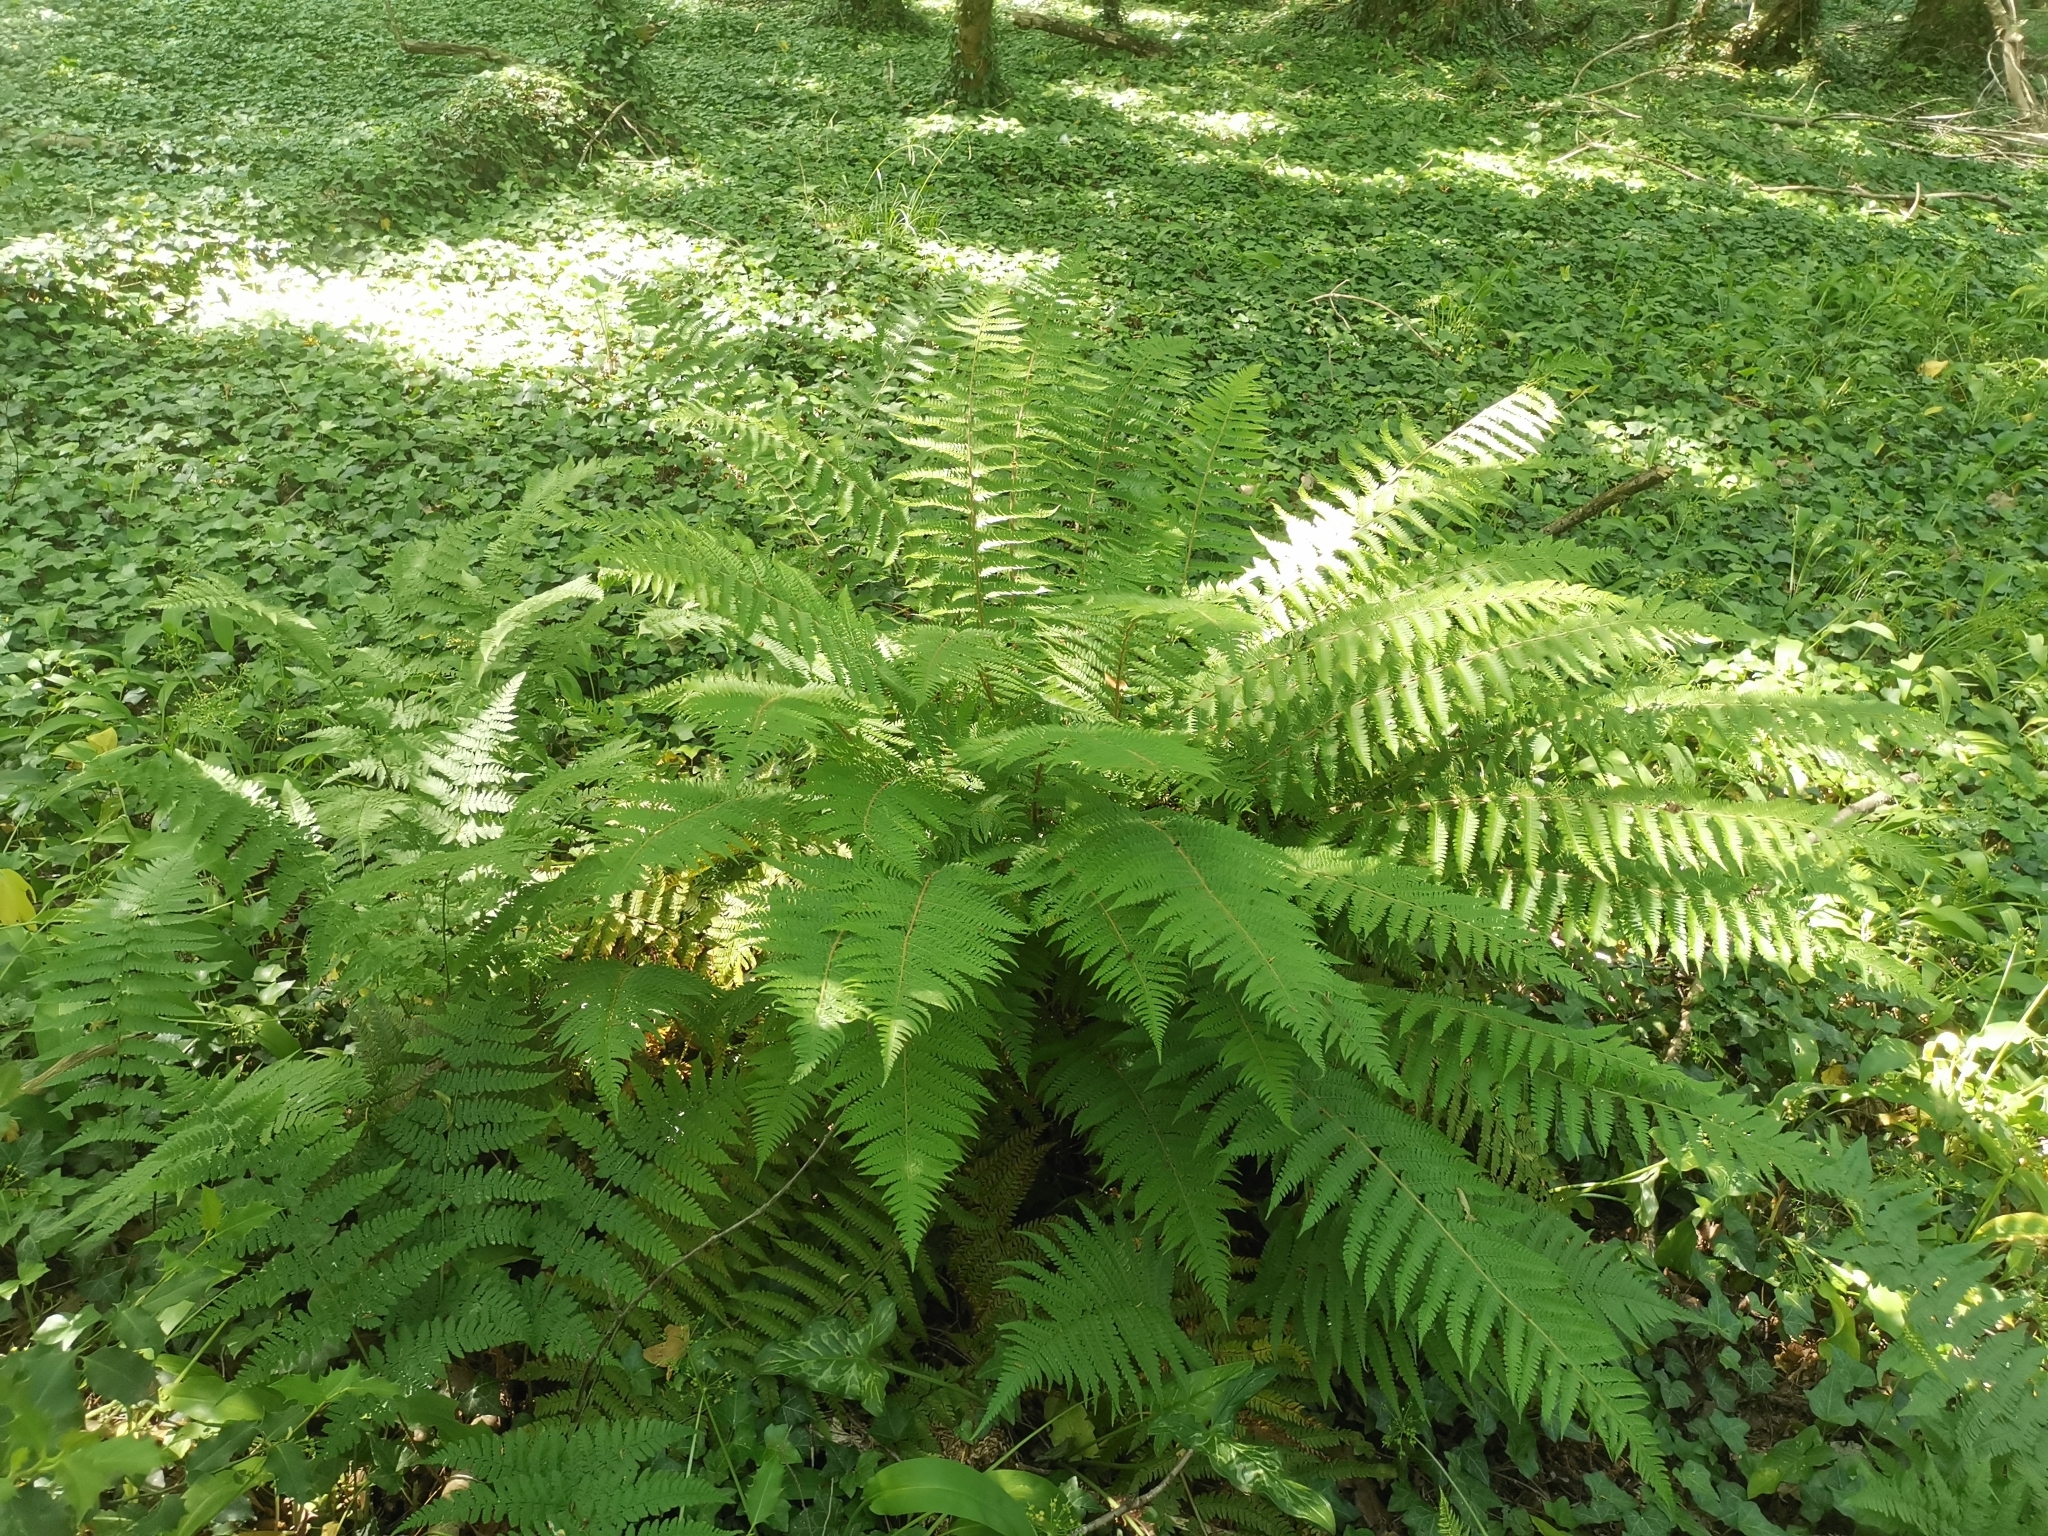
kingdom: Plantae
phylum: Tracheophyta
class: Polypodiopsida
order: Polypodiales
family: Dryopteridaceae
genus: Polystichum
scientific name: Polystichum setiferum
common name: Soft shield-fern
